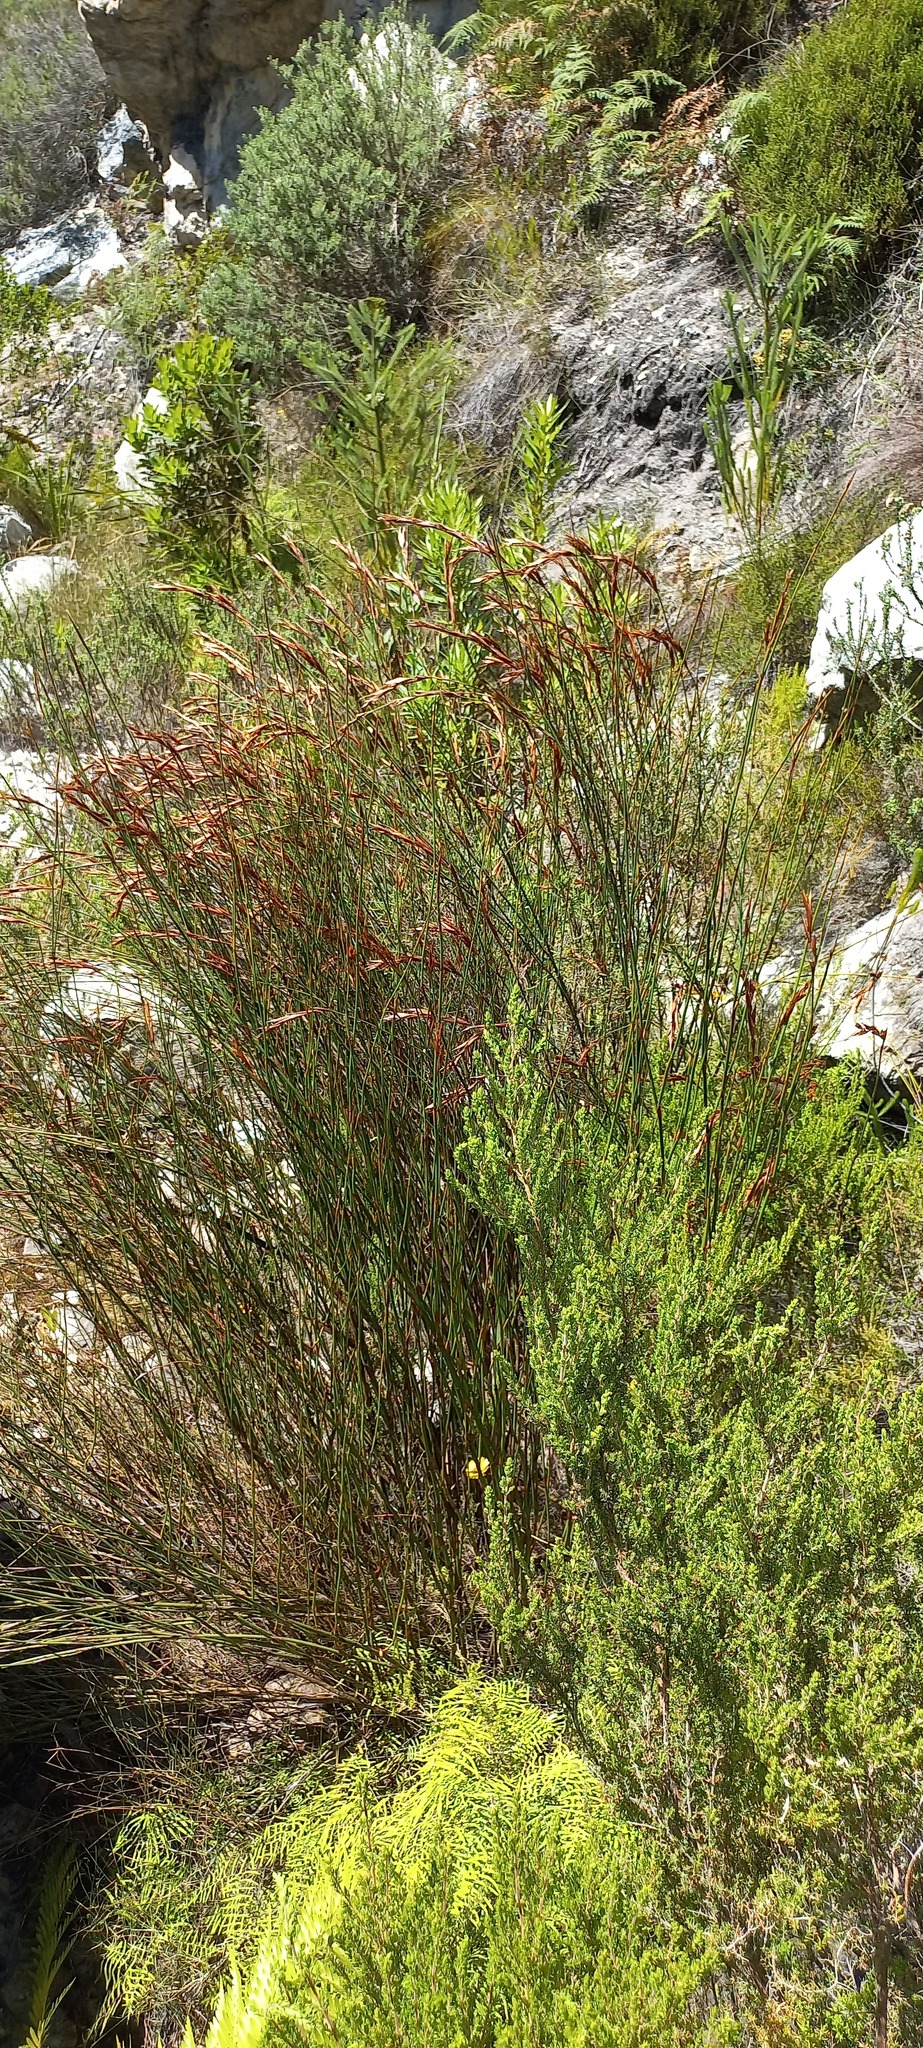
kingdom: Plantae
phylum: Tracheophyta
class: Liliopsida
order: Poales
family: Restionaceae
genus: Restio
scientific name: Restio dispar
